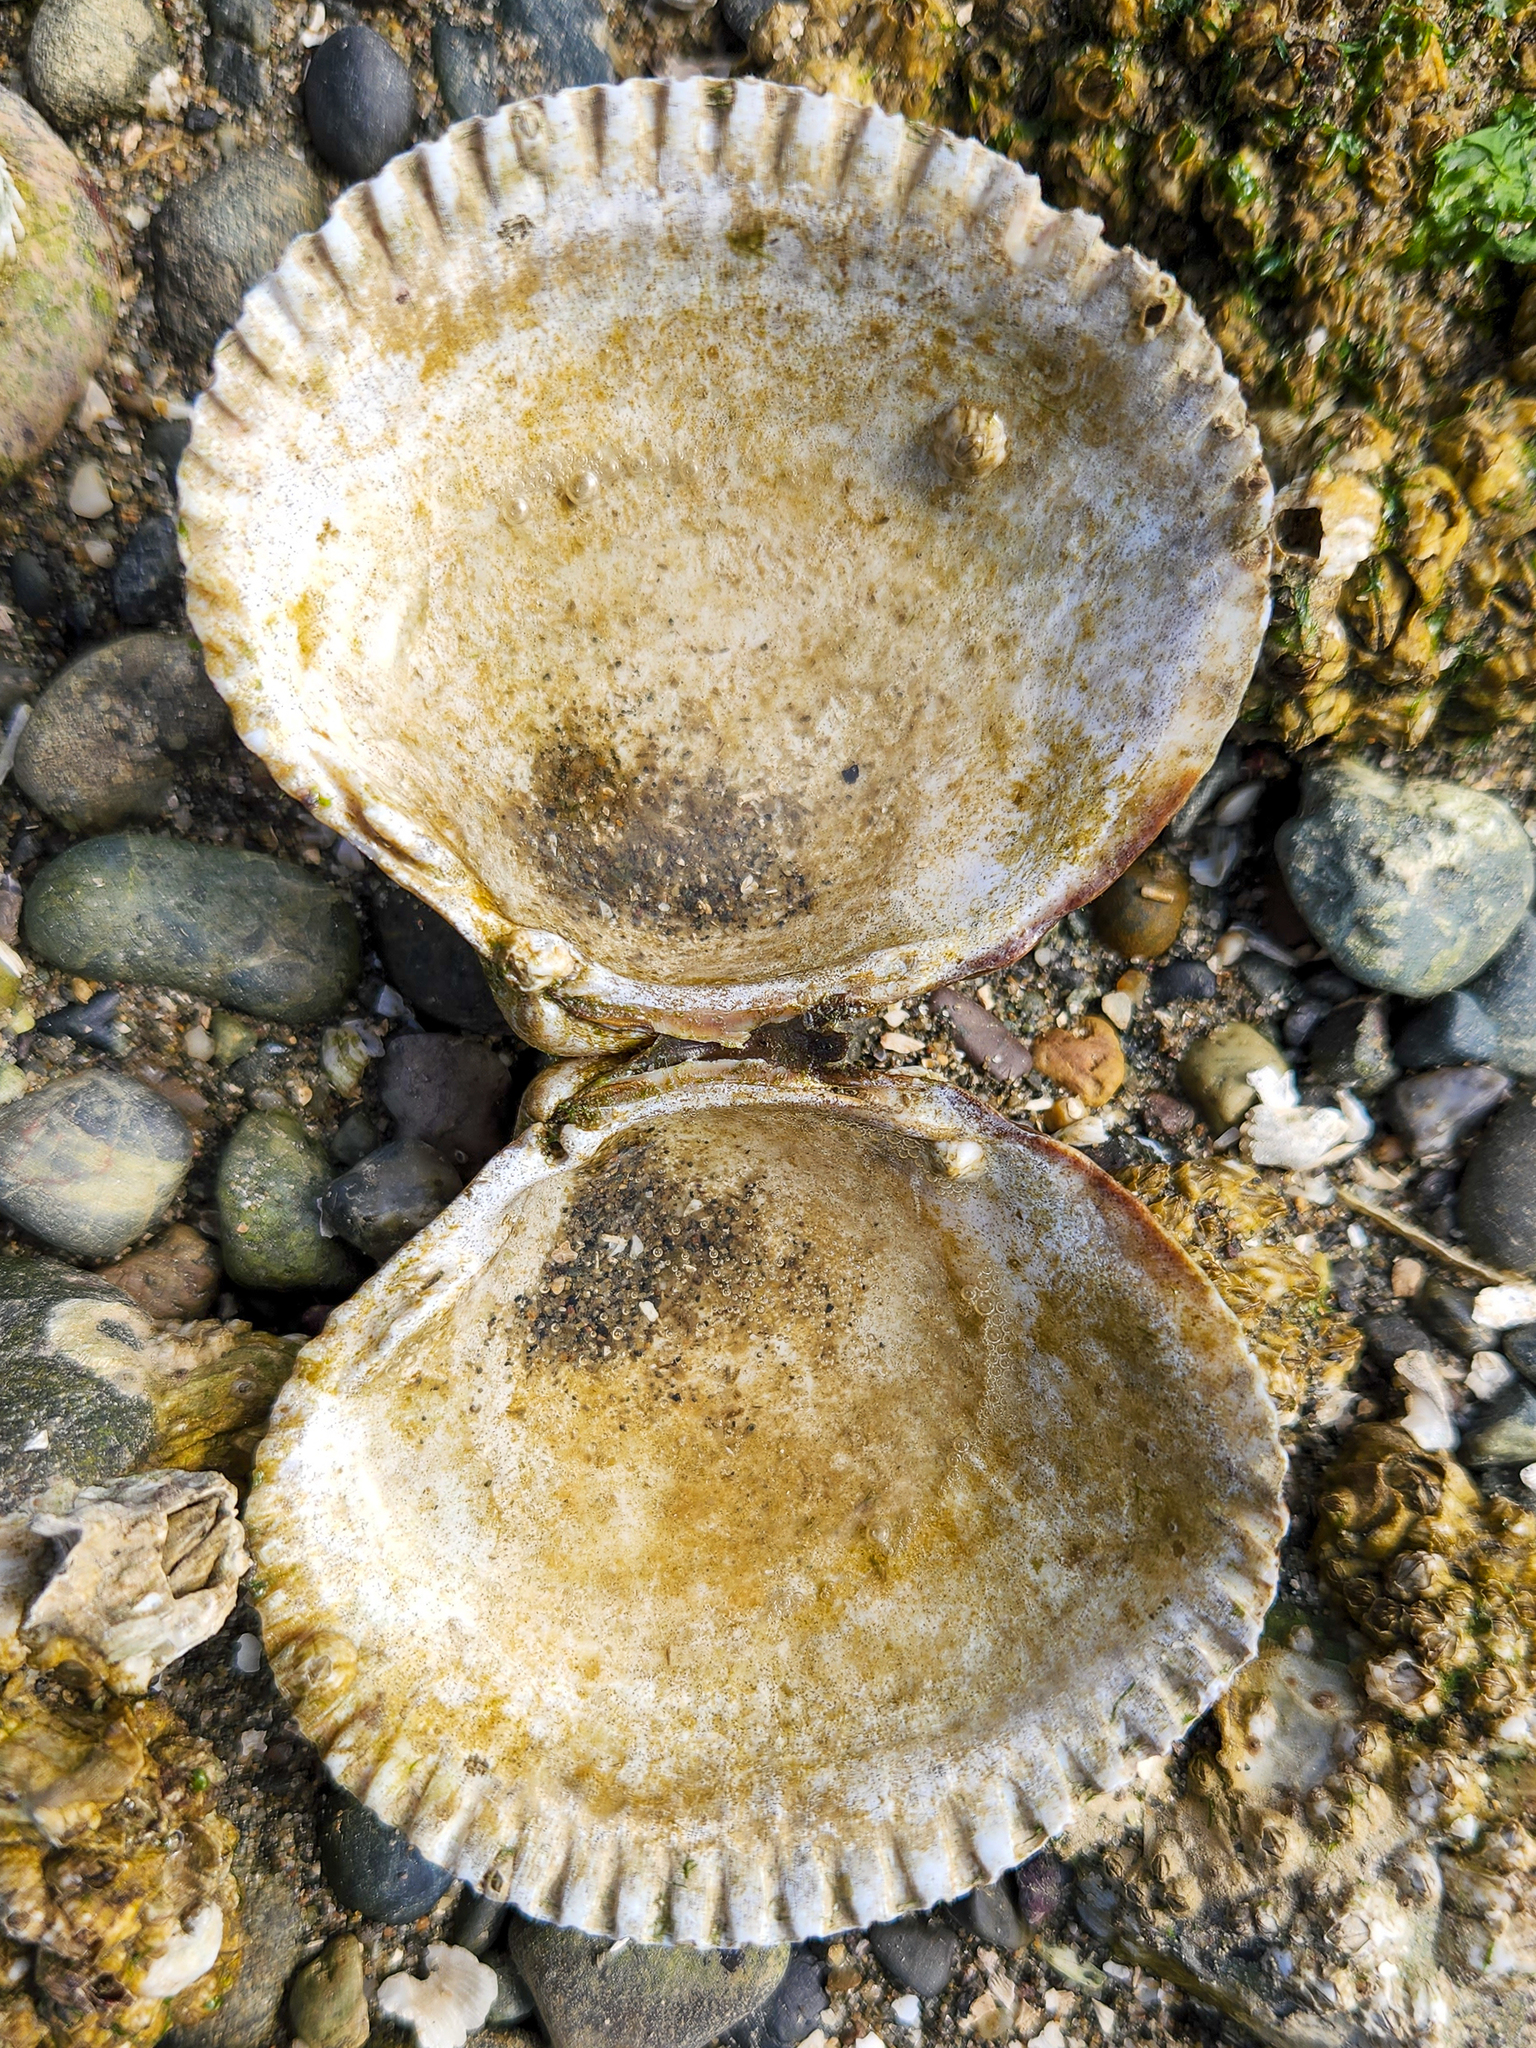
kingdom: Animalia
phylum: Mollusca
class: Bivalvia
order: Cardiida
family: Cardiidae
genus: Clinocardium
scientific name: Clinocardium nuttallii
